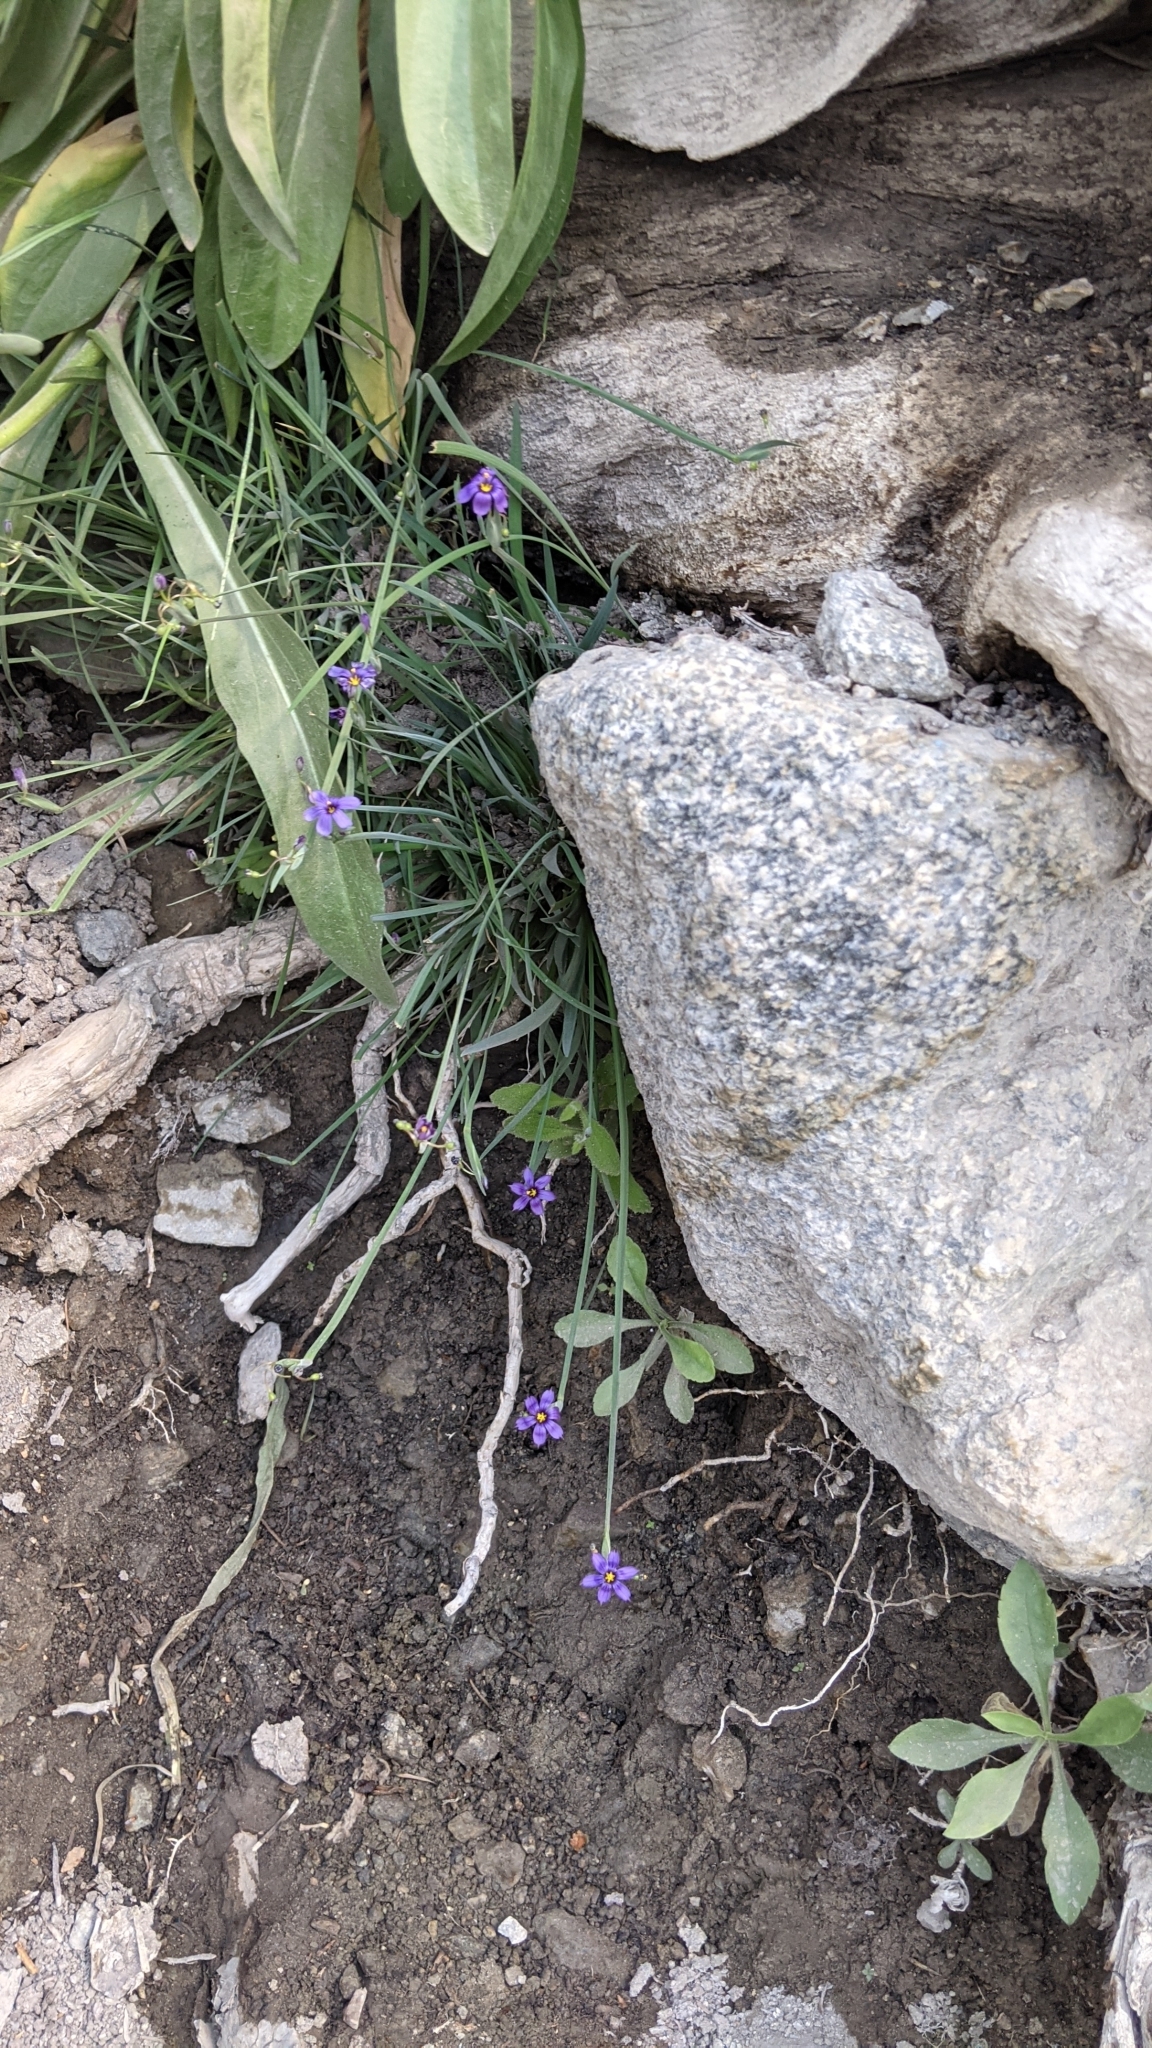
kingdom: Plantae
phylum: Tracheophyta
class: Liliopsida
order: Asparagales
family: Iridaceae
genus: Sisyrinchium
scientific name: Sisyrinchium bellum
